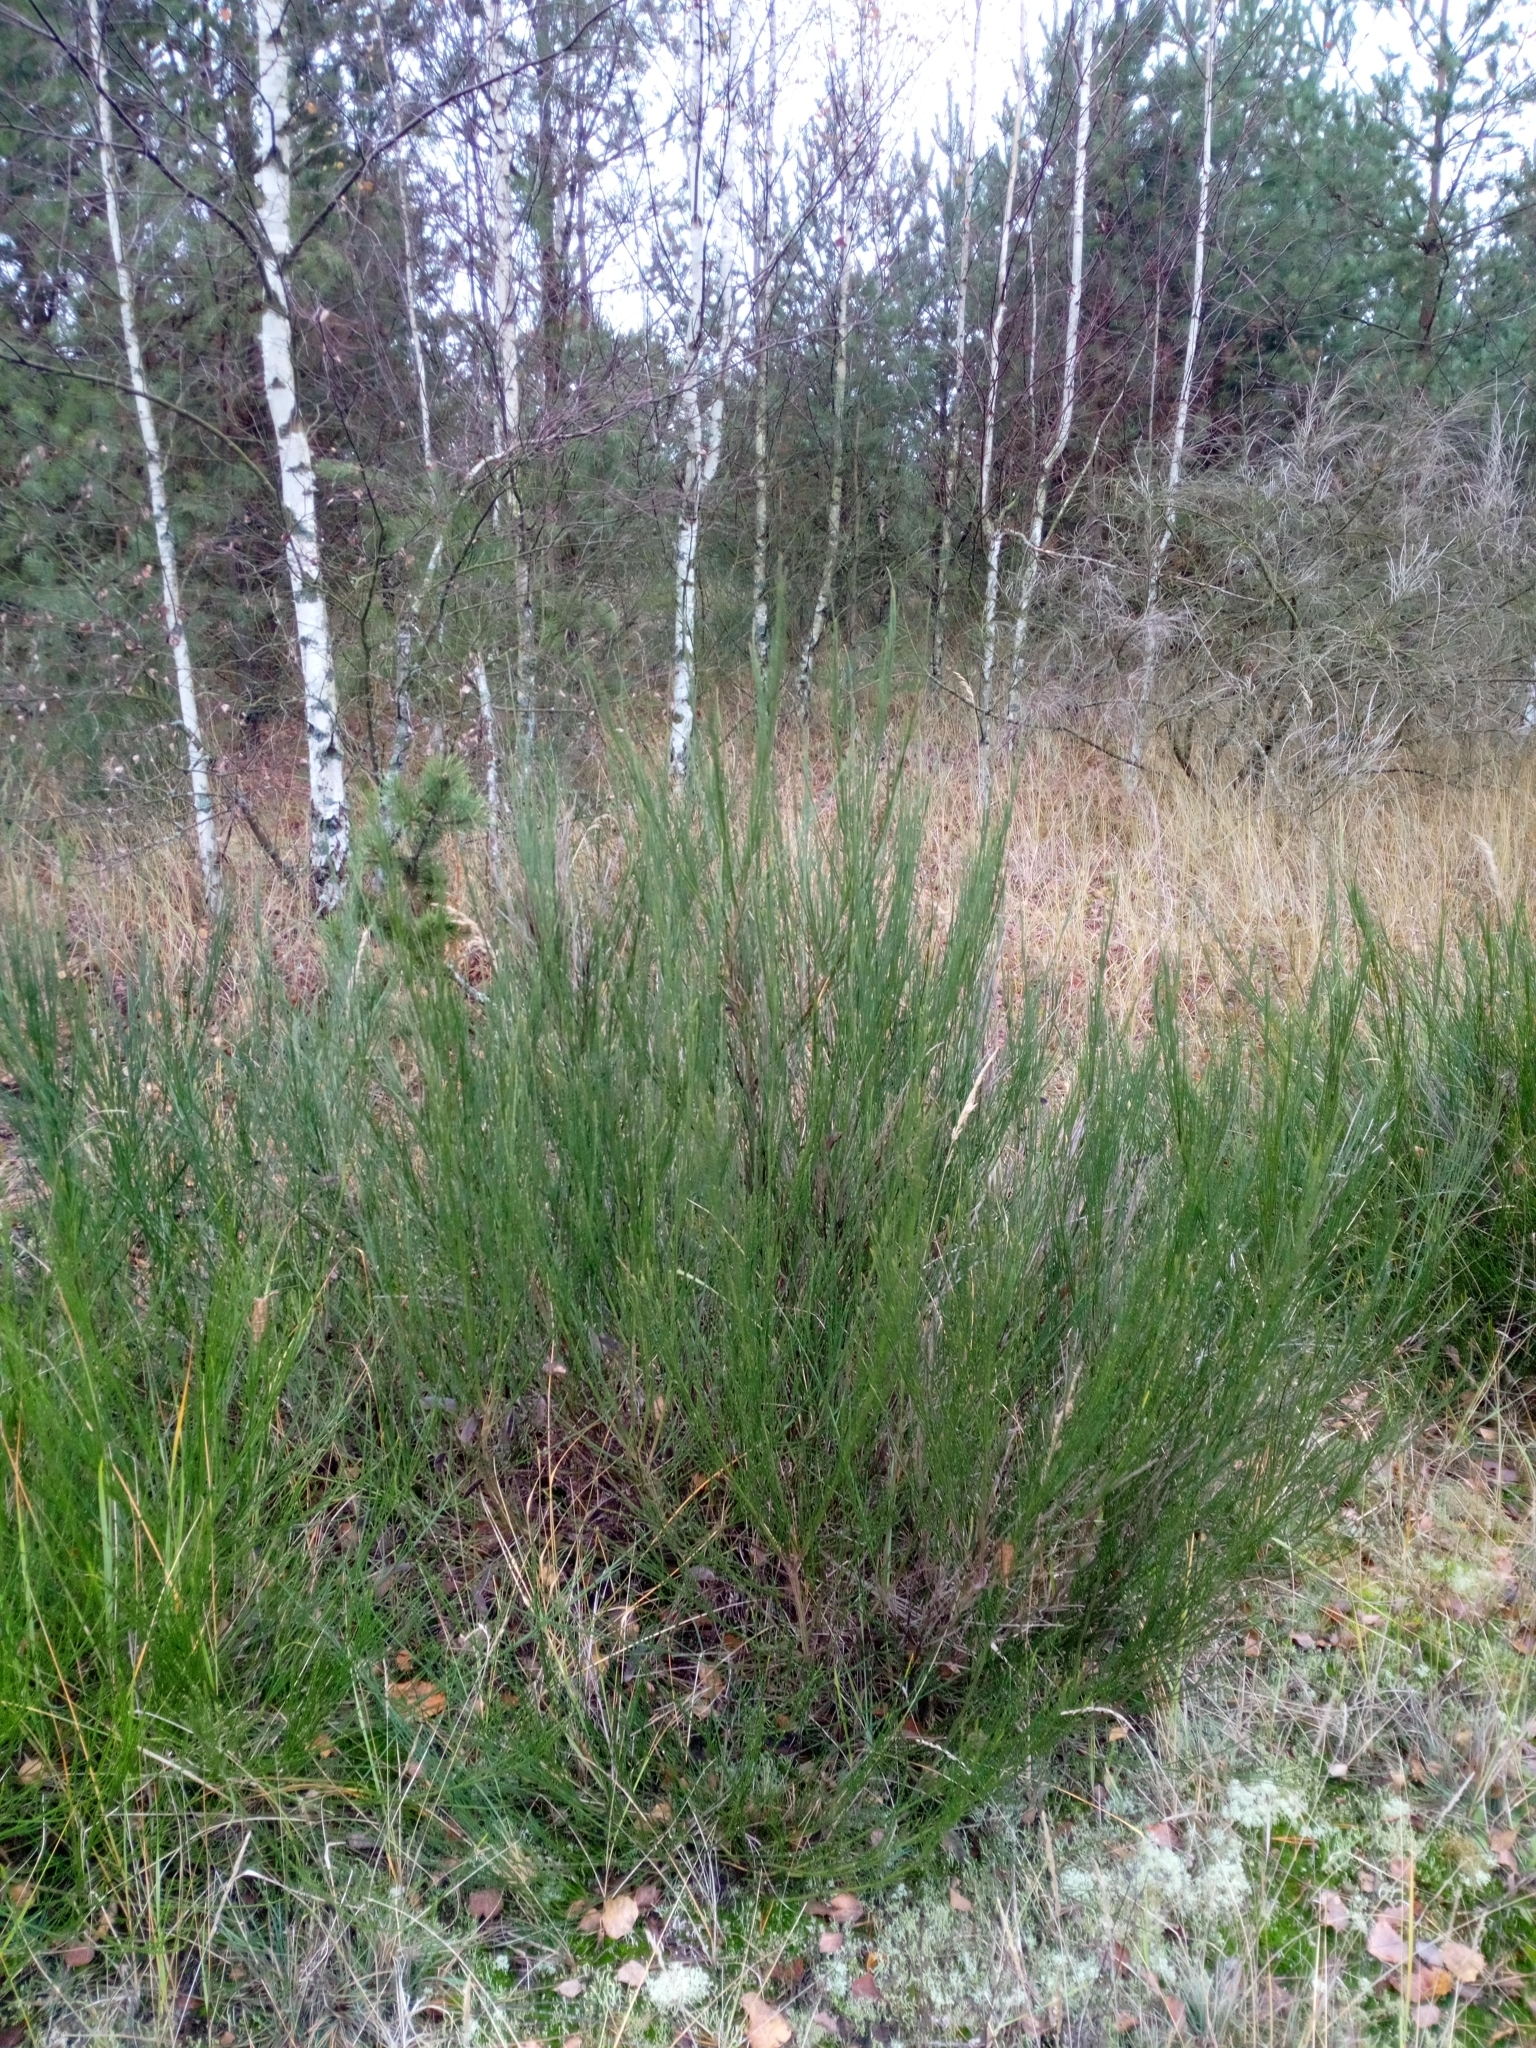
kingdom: Plantae
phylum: Tracheophyta
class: Magnoliopsida
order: Fabales
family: Fabaceae
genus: Cytisus
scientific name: Cytisus scoparius
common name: Scotch broom
